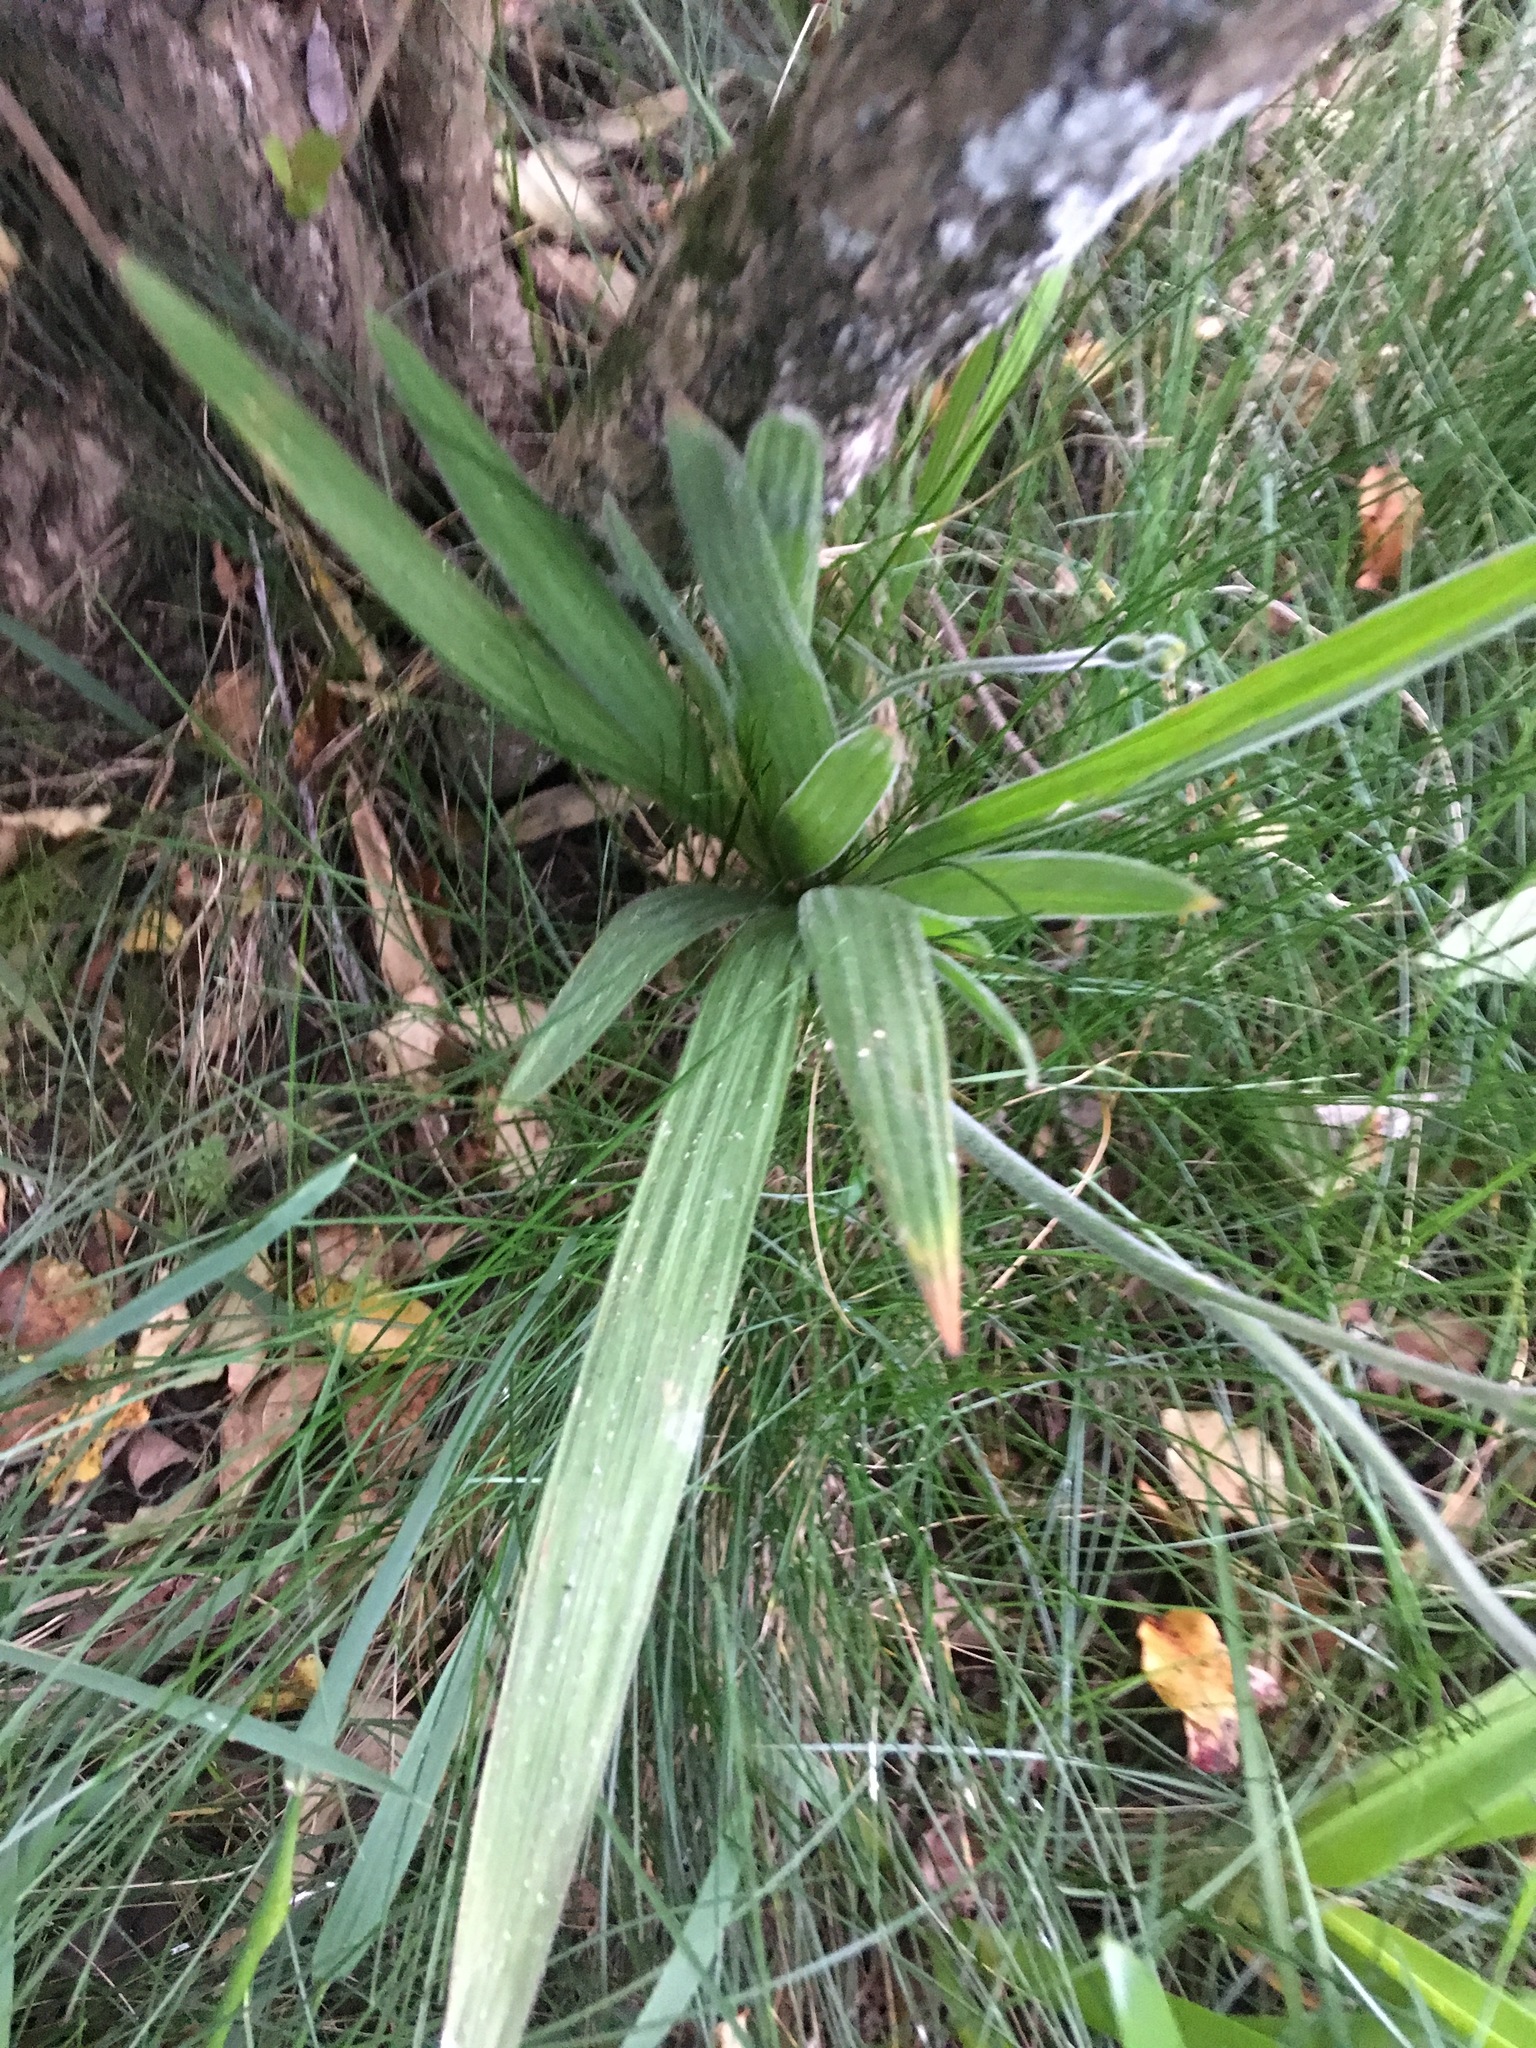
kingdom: Plantae
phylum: Tracheophyta
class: Liliopsida
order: Asparagales
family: Iridaceae
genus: Babiana
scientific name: Babiana angustifolia
